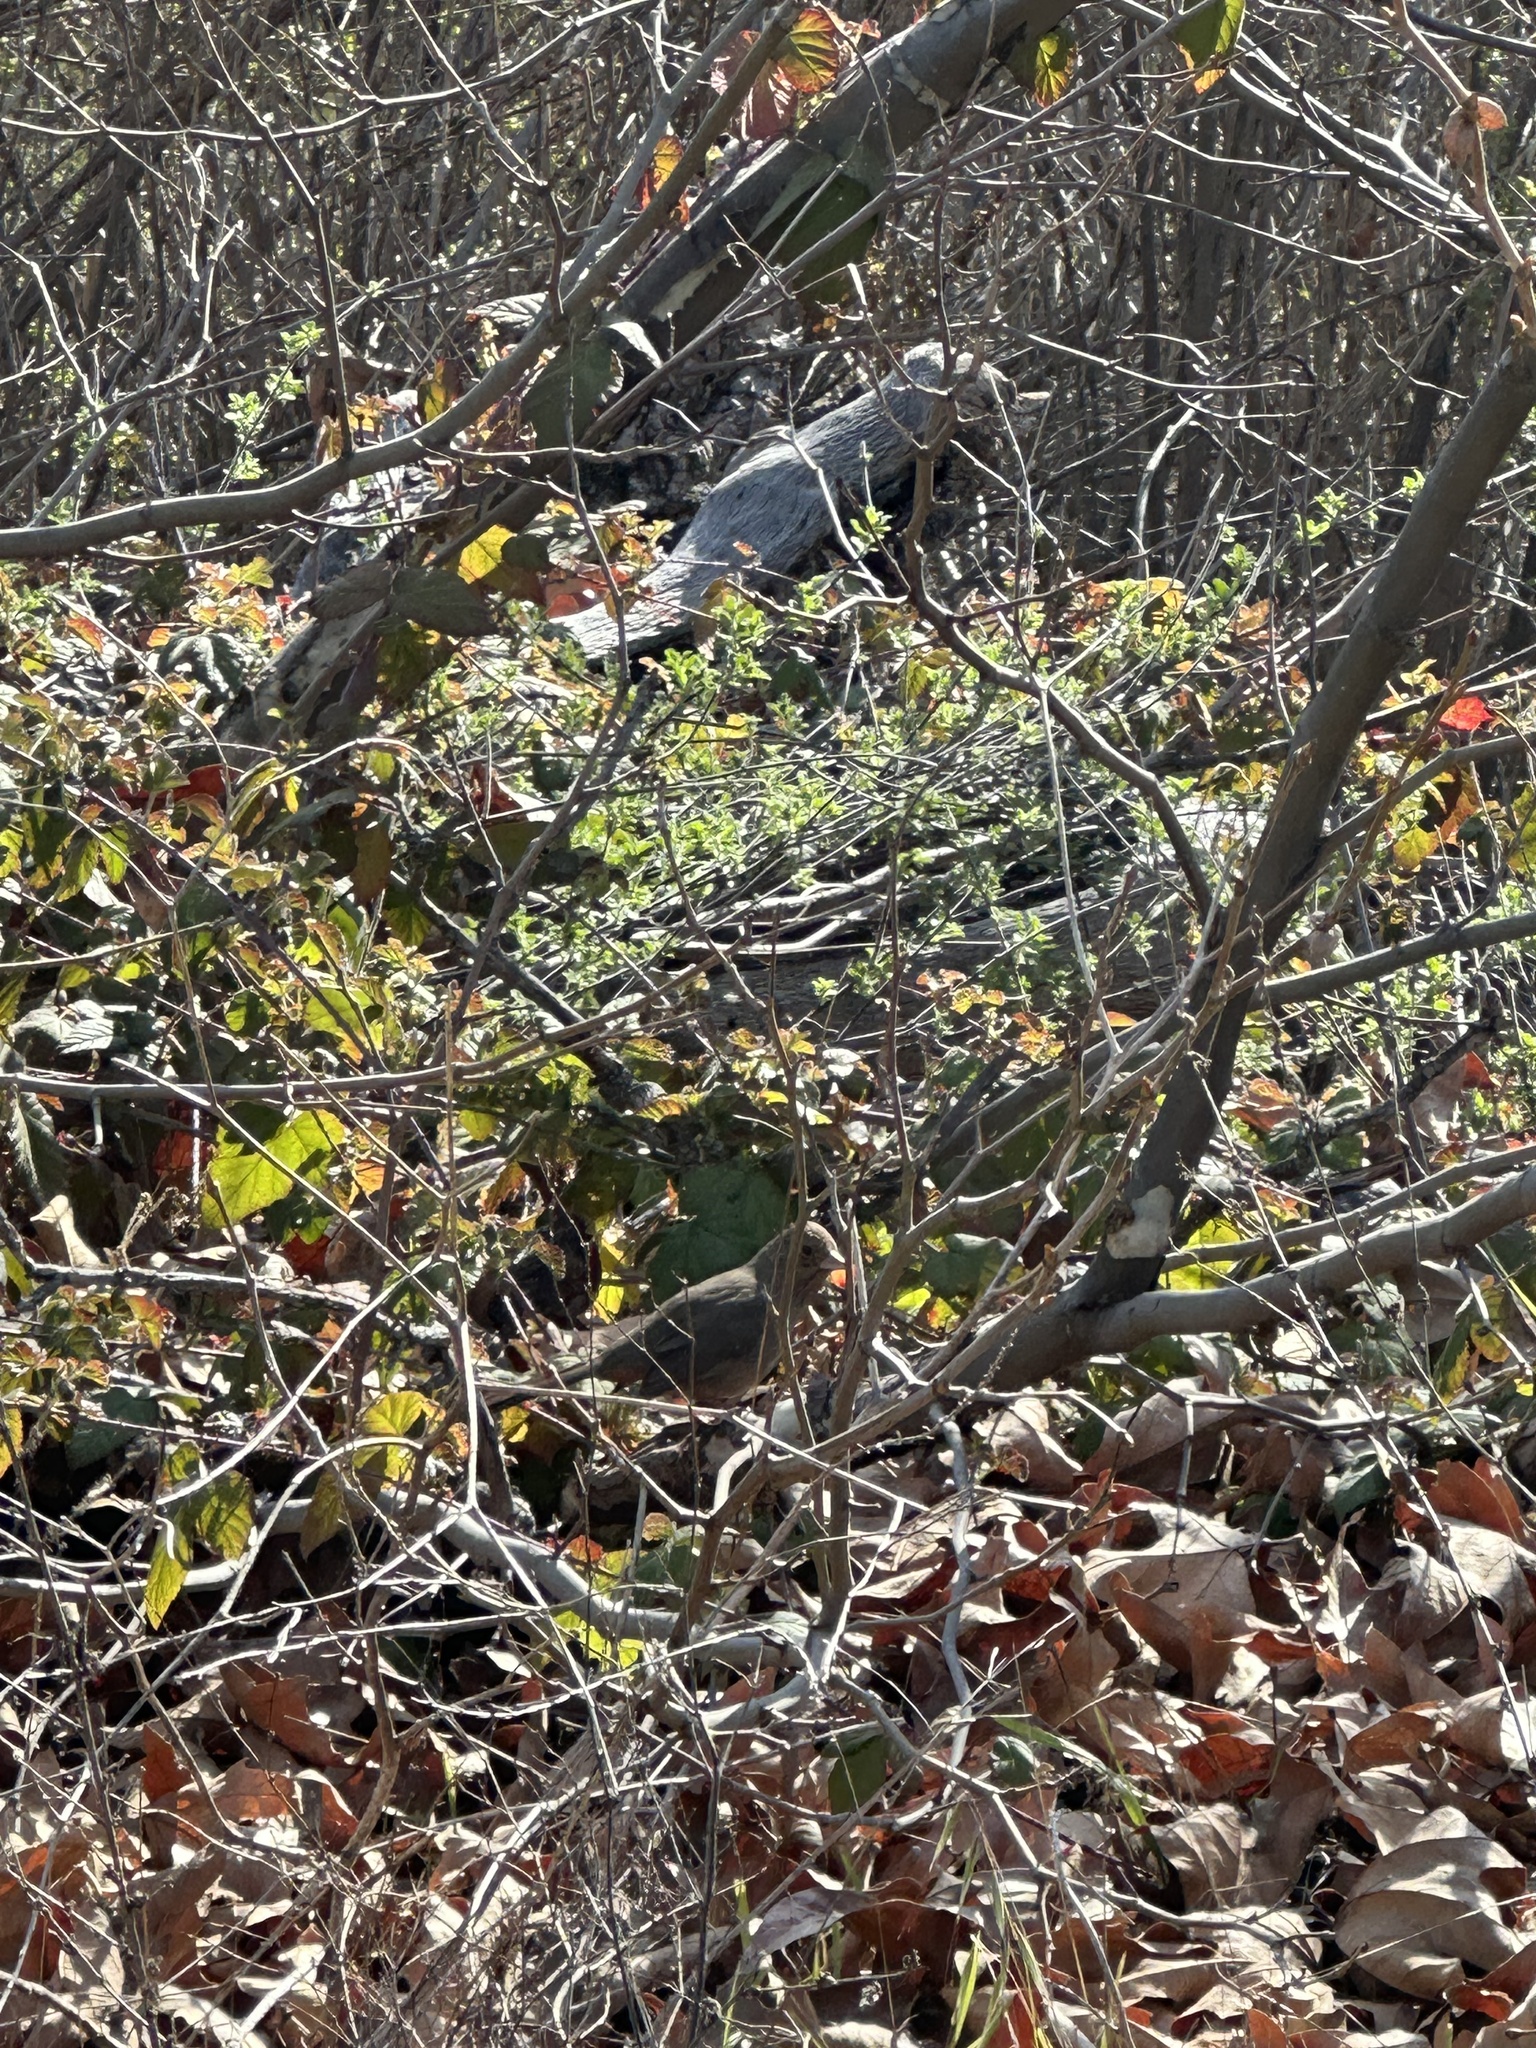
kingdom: Animalia
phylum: Chordata
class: Aves
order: Passeriformes
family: Passerellidae
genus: Melozone
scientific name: Melozone crissalis
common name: California towhee
